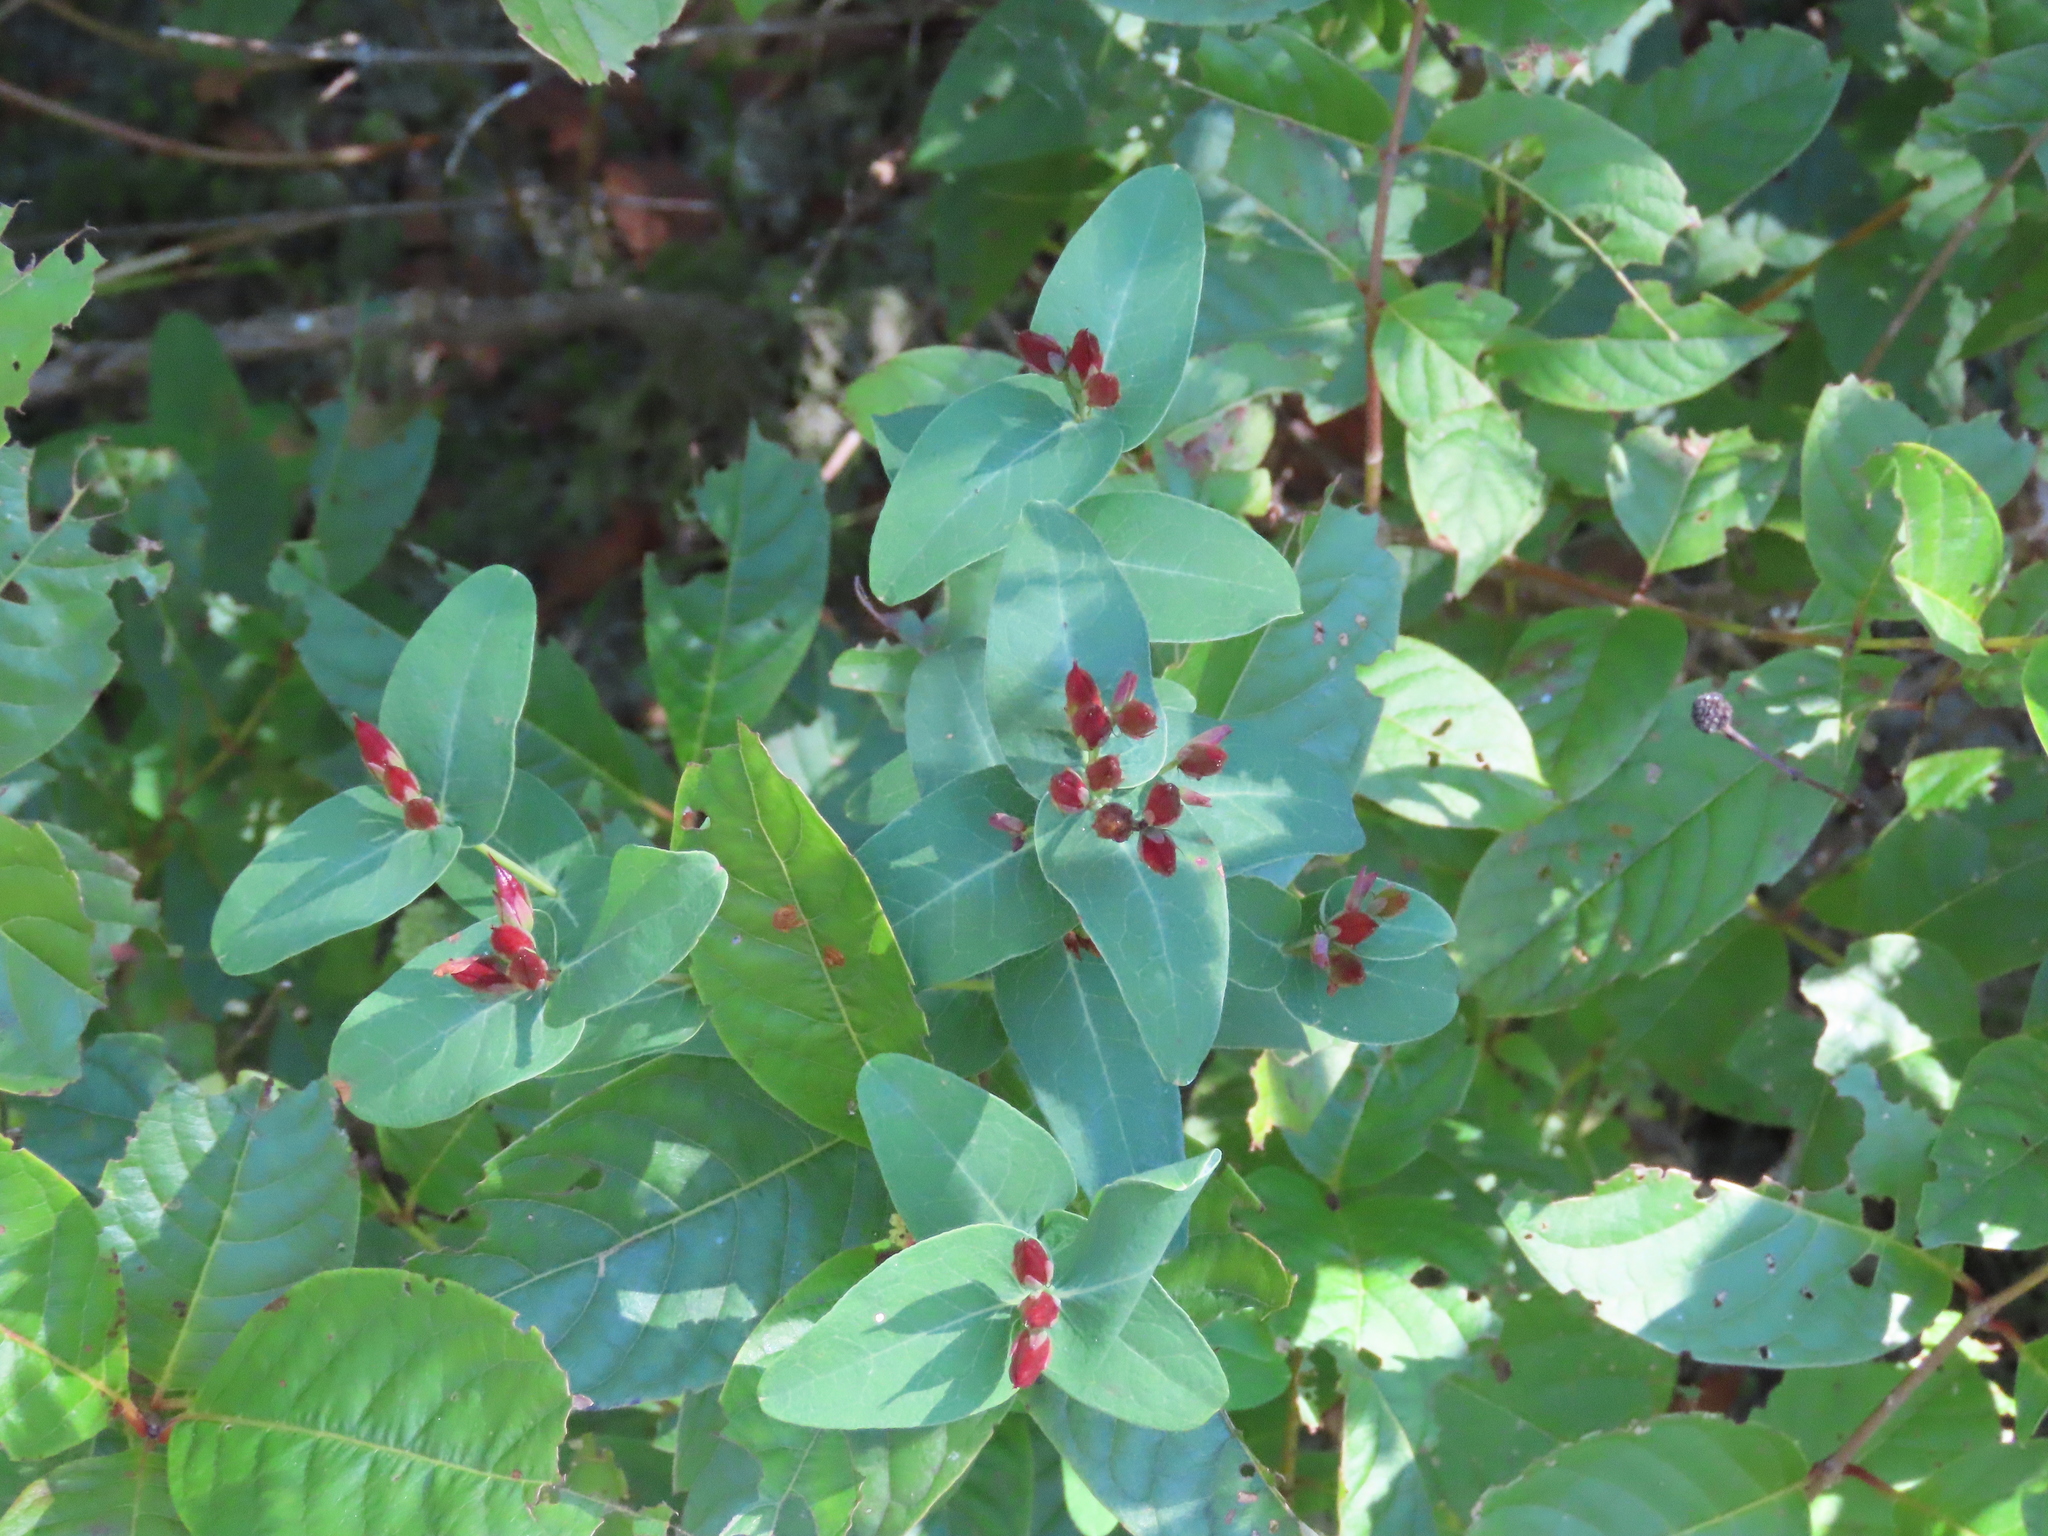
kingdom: Plantae
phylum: Tracheophyta
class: Magnoliopsida
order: Malpighiales
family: Hypericaceae
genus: Triadenum
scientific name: Triadenum virginicum
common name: Marsh st. john's-wort
